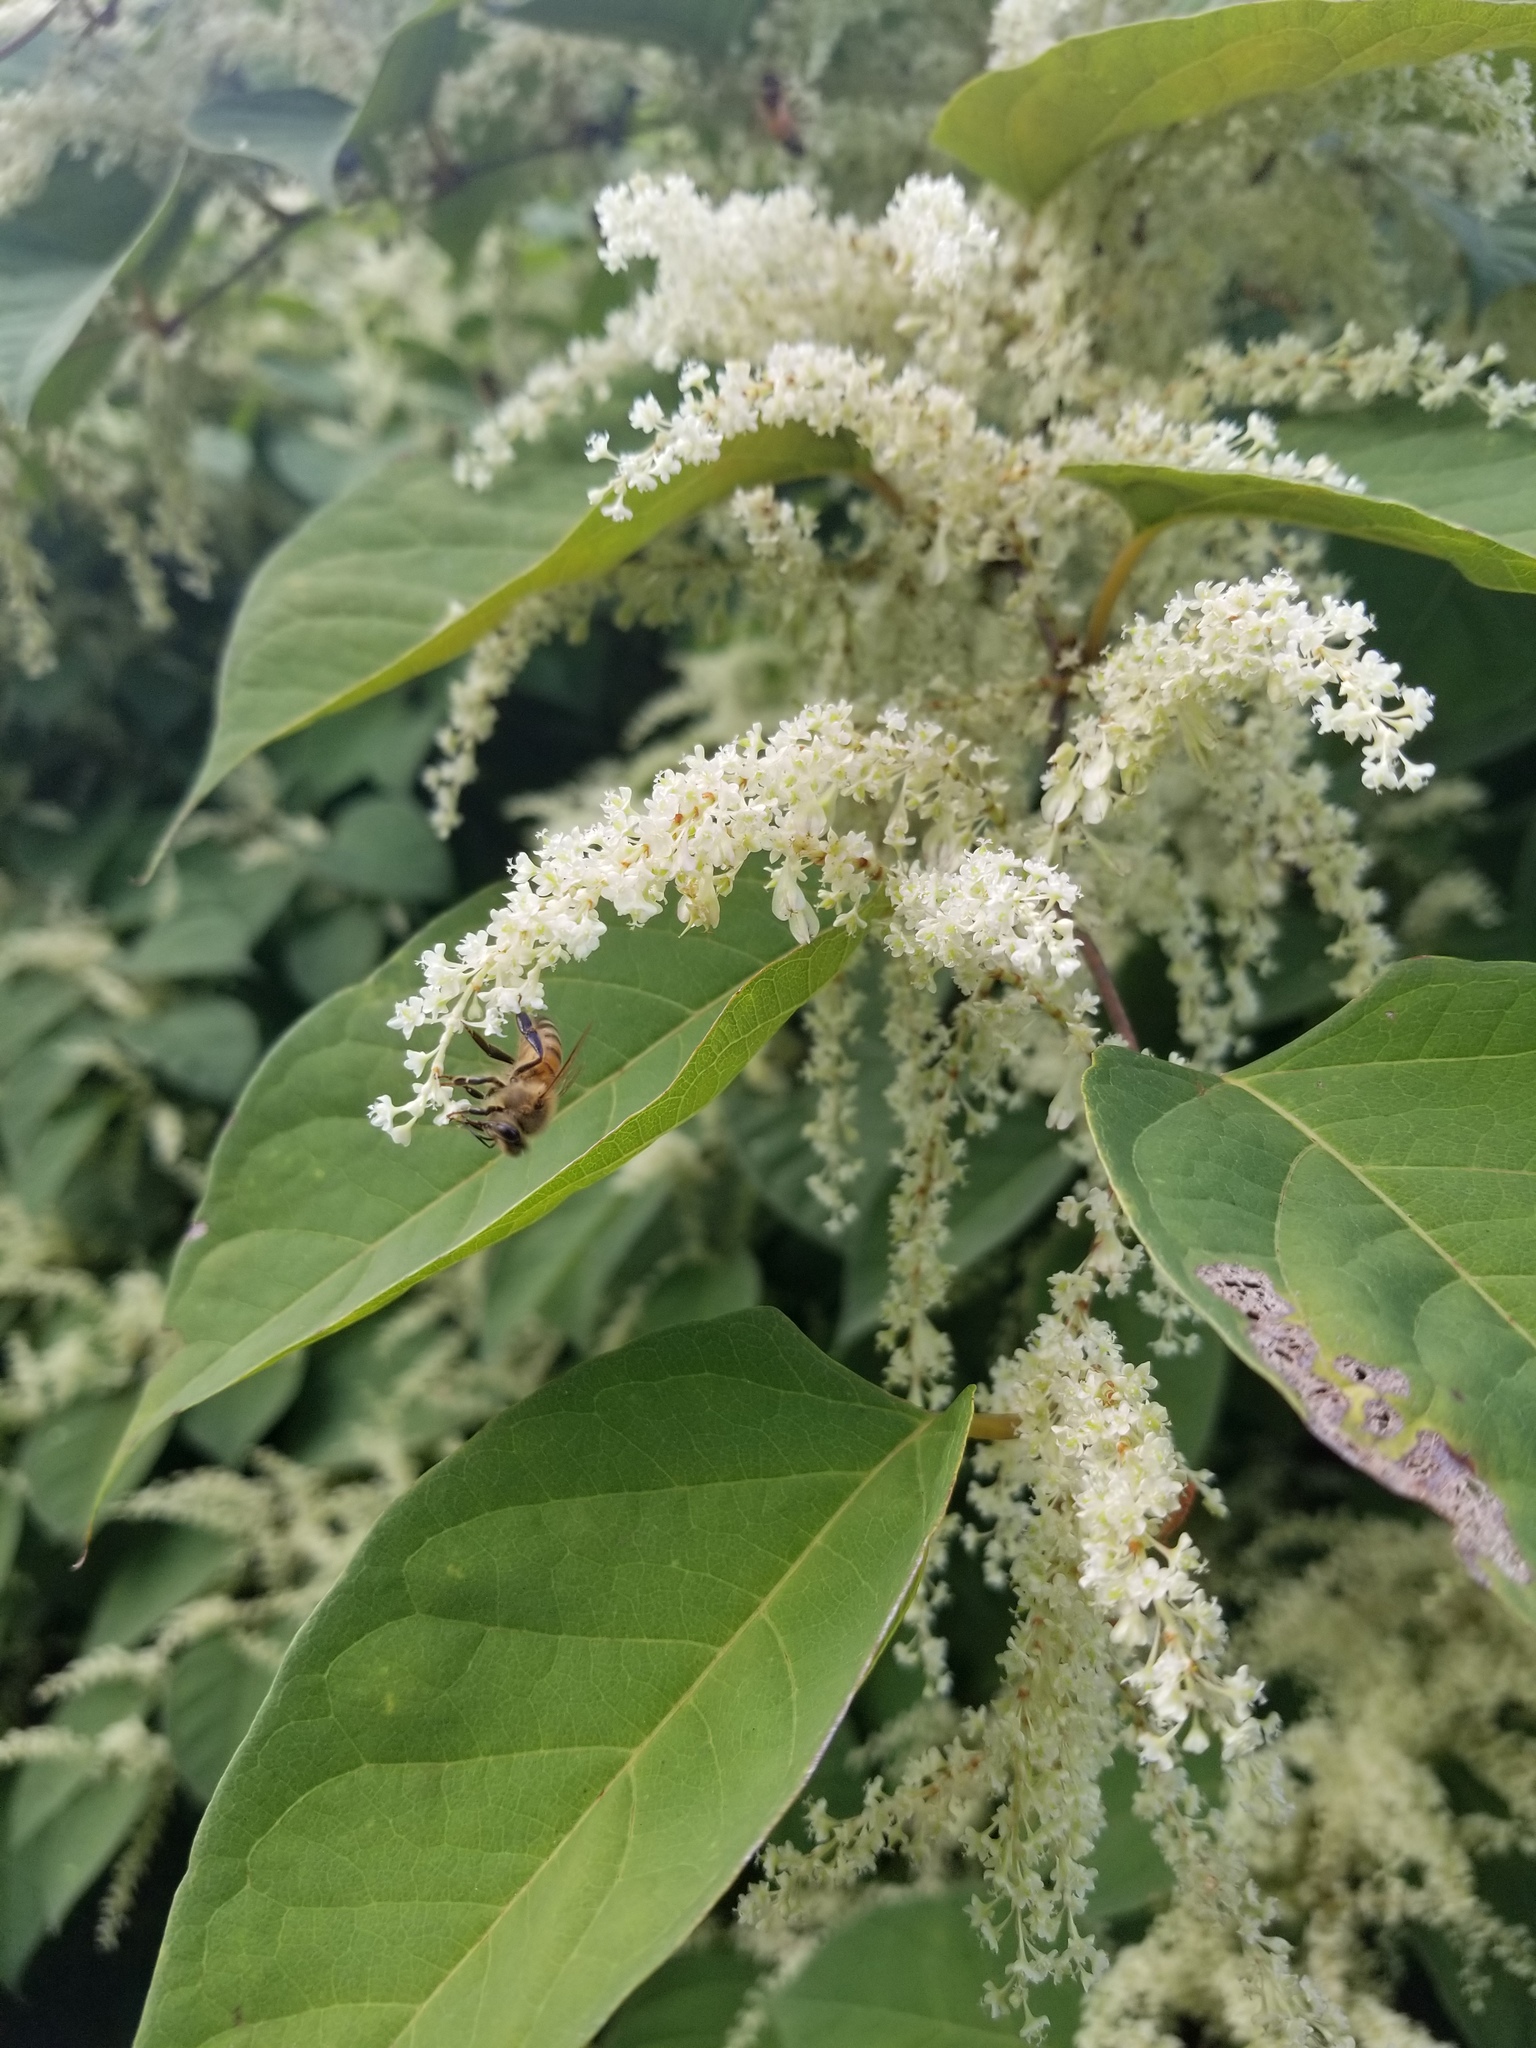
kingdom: Plantae
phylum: Tracheophyta
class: Magnoliopsida
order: Caryophyllales
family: Polygonaceae
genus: Reynoutria
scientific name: Reynoutria japonica
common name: Japanese knotweed
